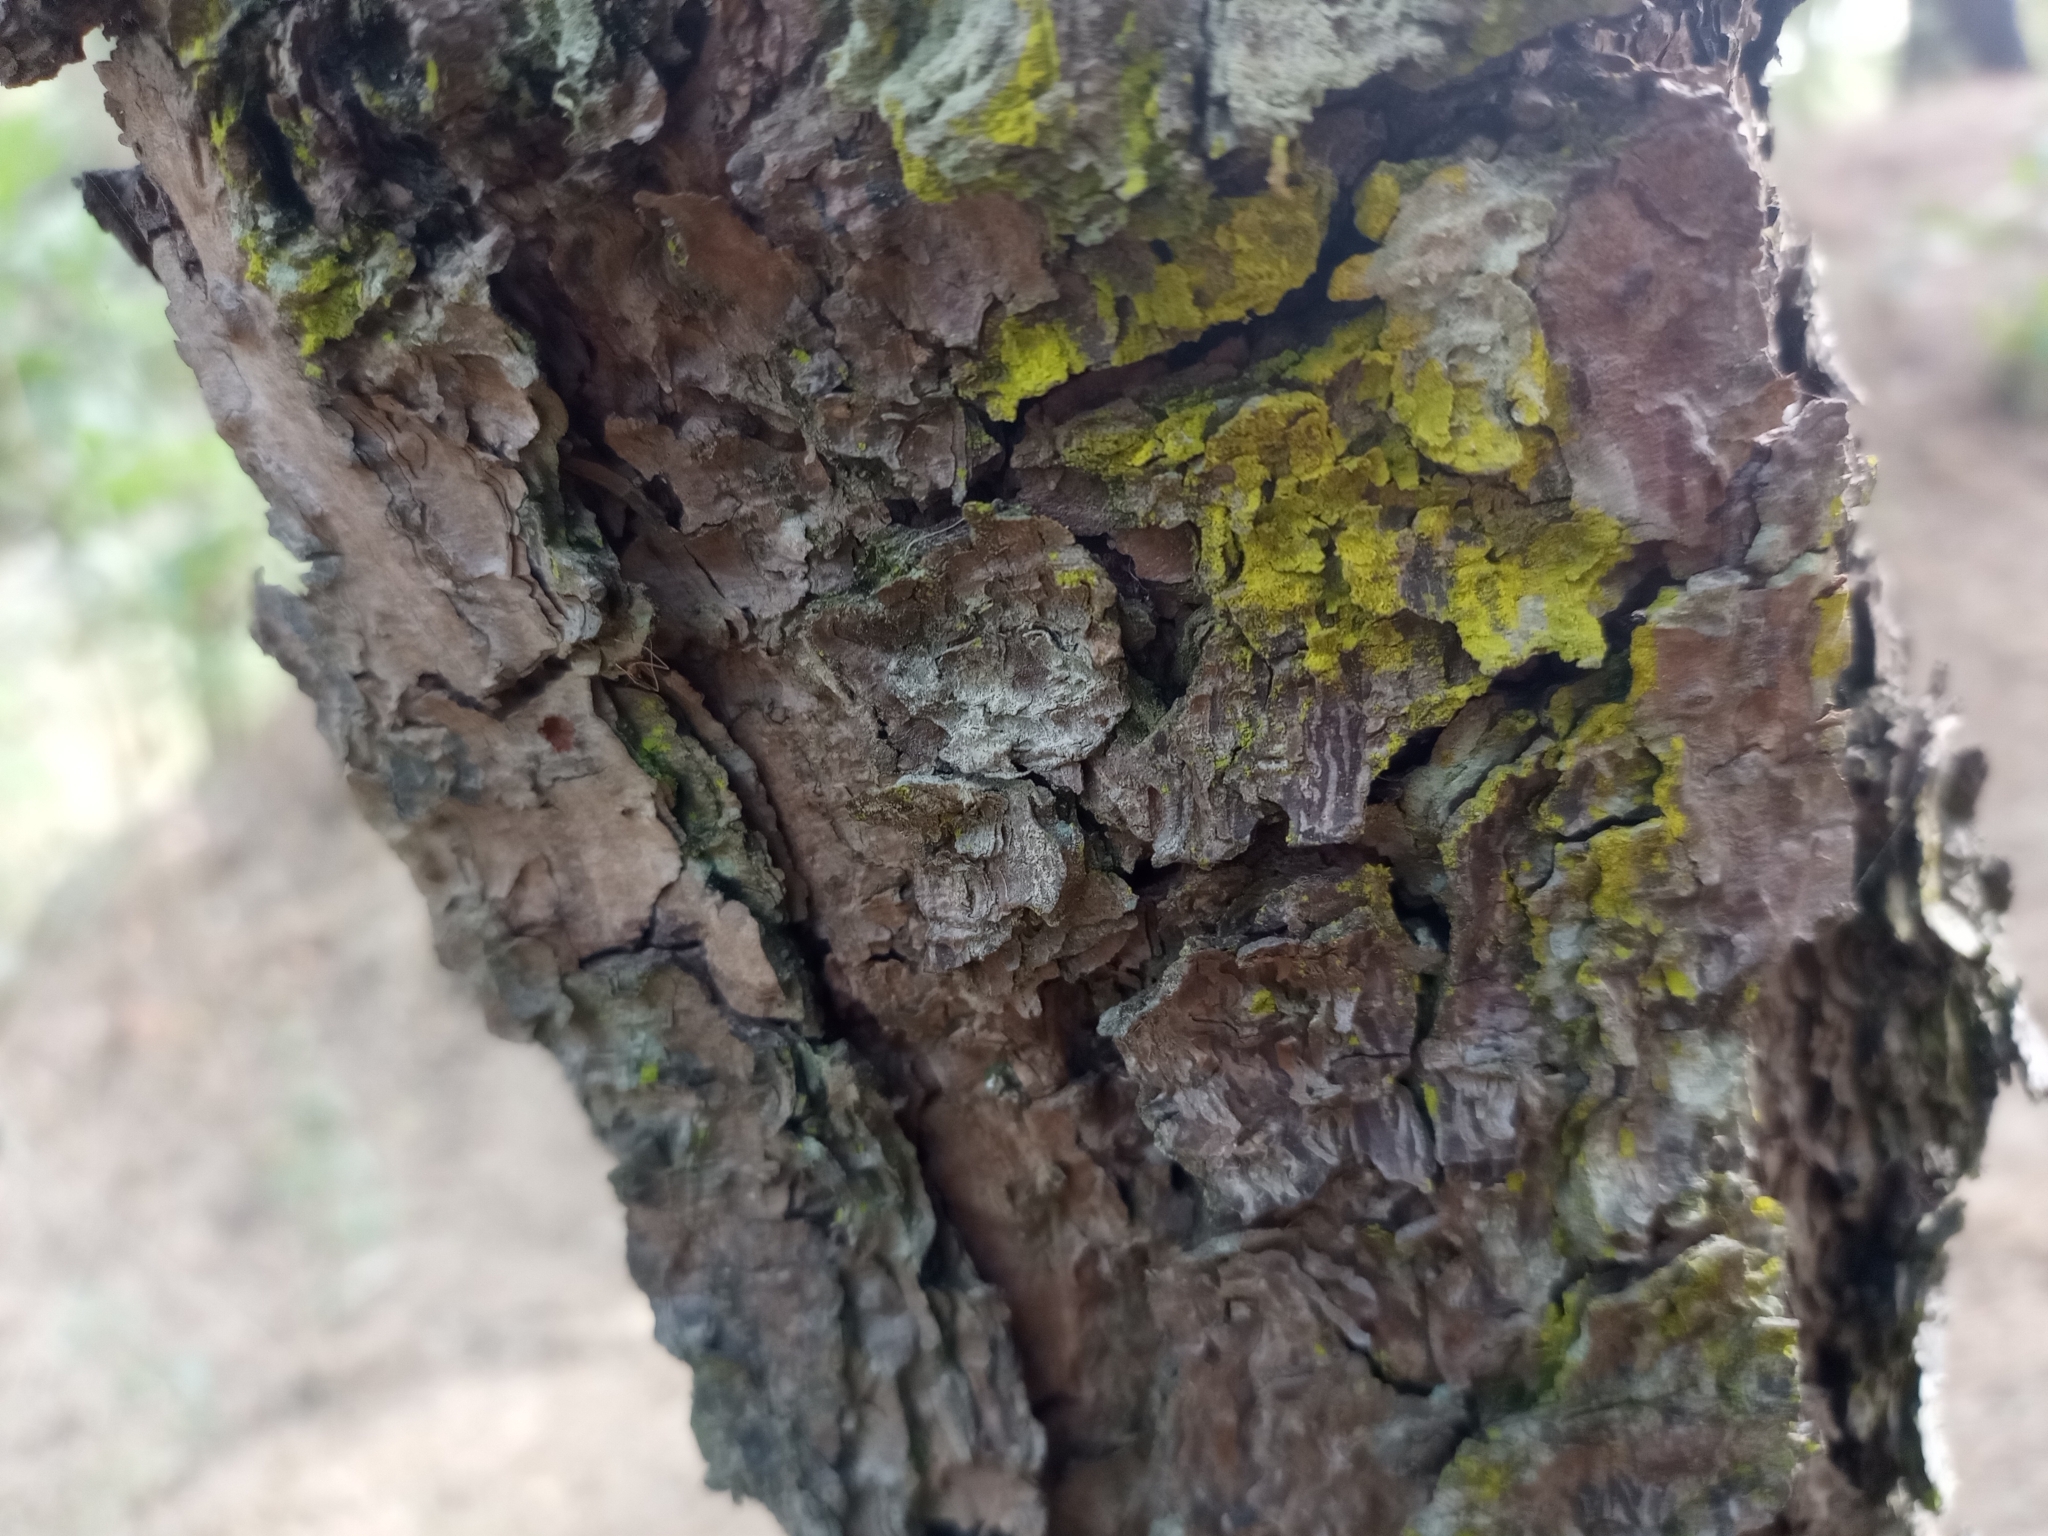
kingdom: Fungi
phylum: Ascomycota
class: Arthoniomycetes
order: Arthoniales
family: Chrysotrichaceae
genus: Chrysothrix
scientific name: Chrysothrix candelaris
